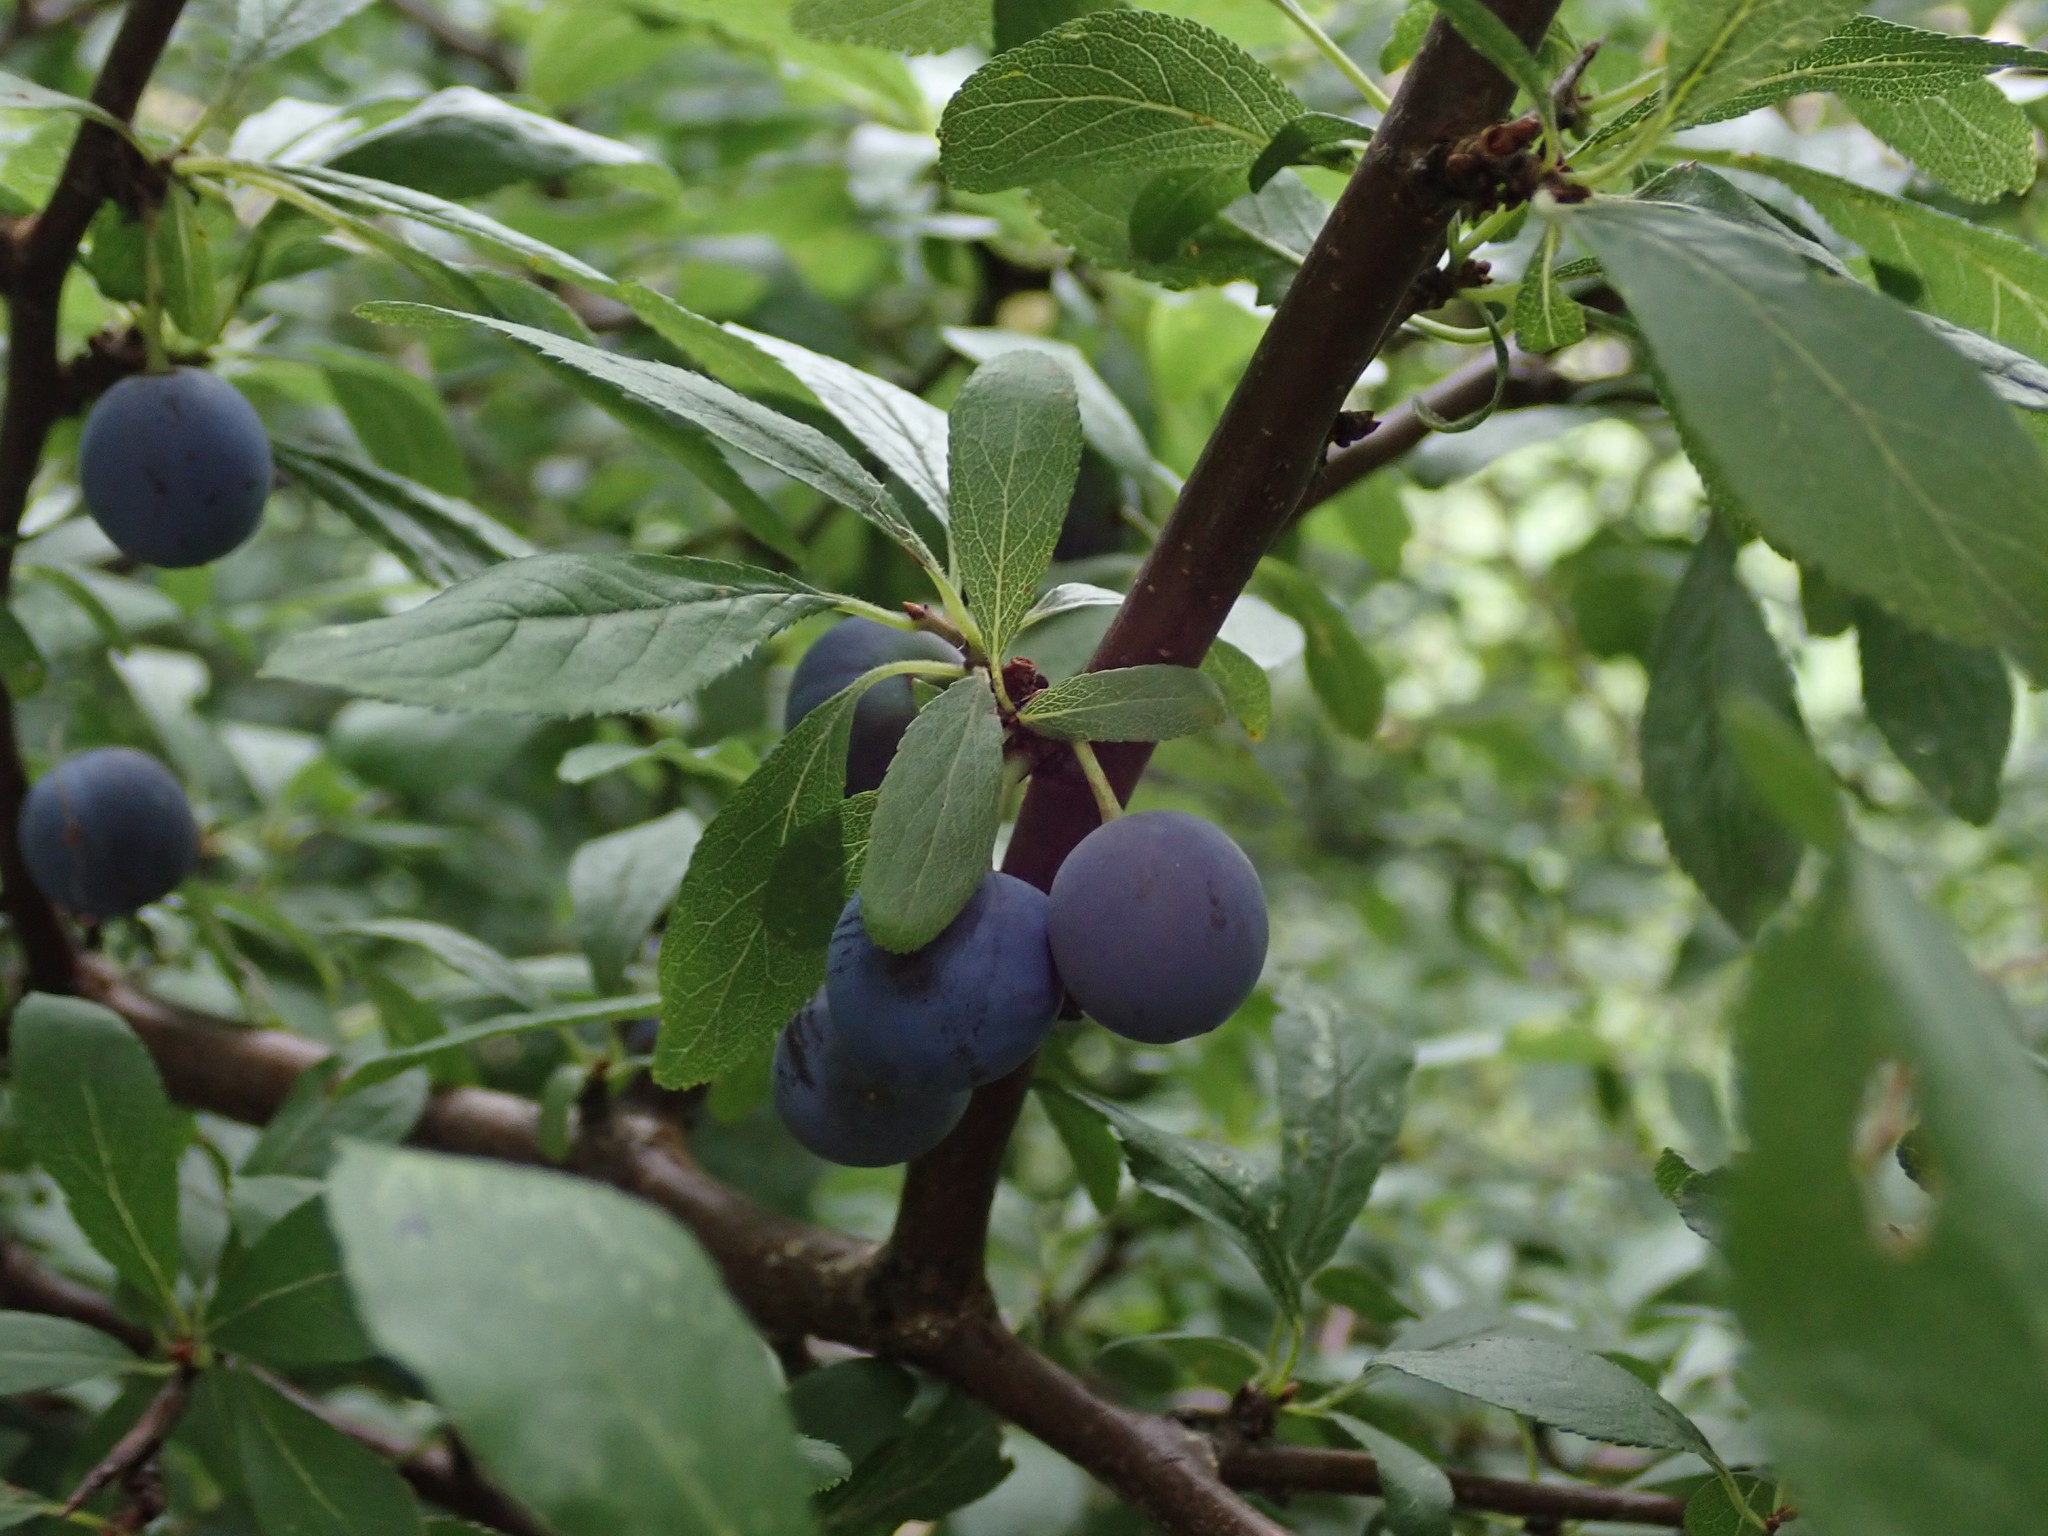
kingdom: Plantae
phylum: Tracheophyta
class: Magnoliopsida
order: Rosales
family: Rosaceae
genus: Prunus
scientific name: Prunus spinosa
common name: Blackthorn
